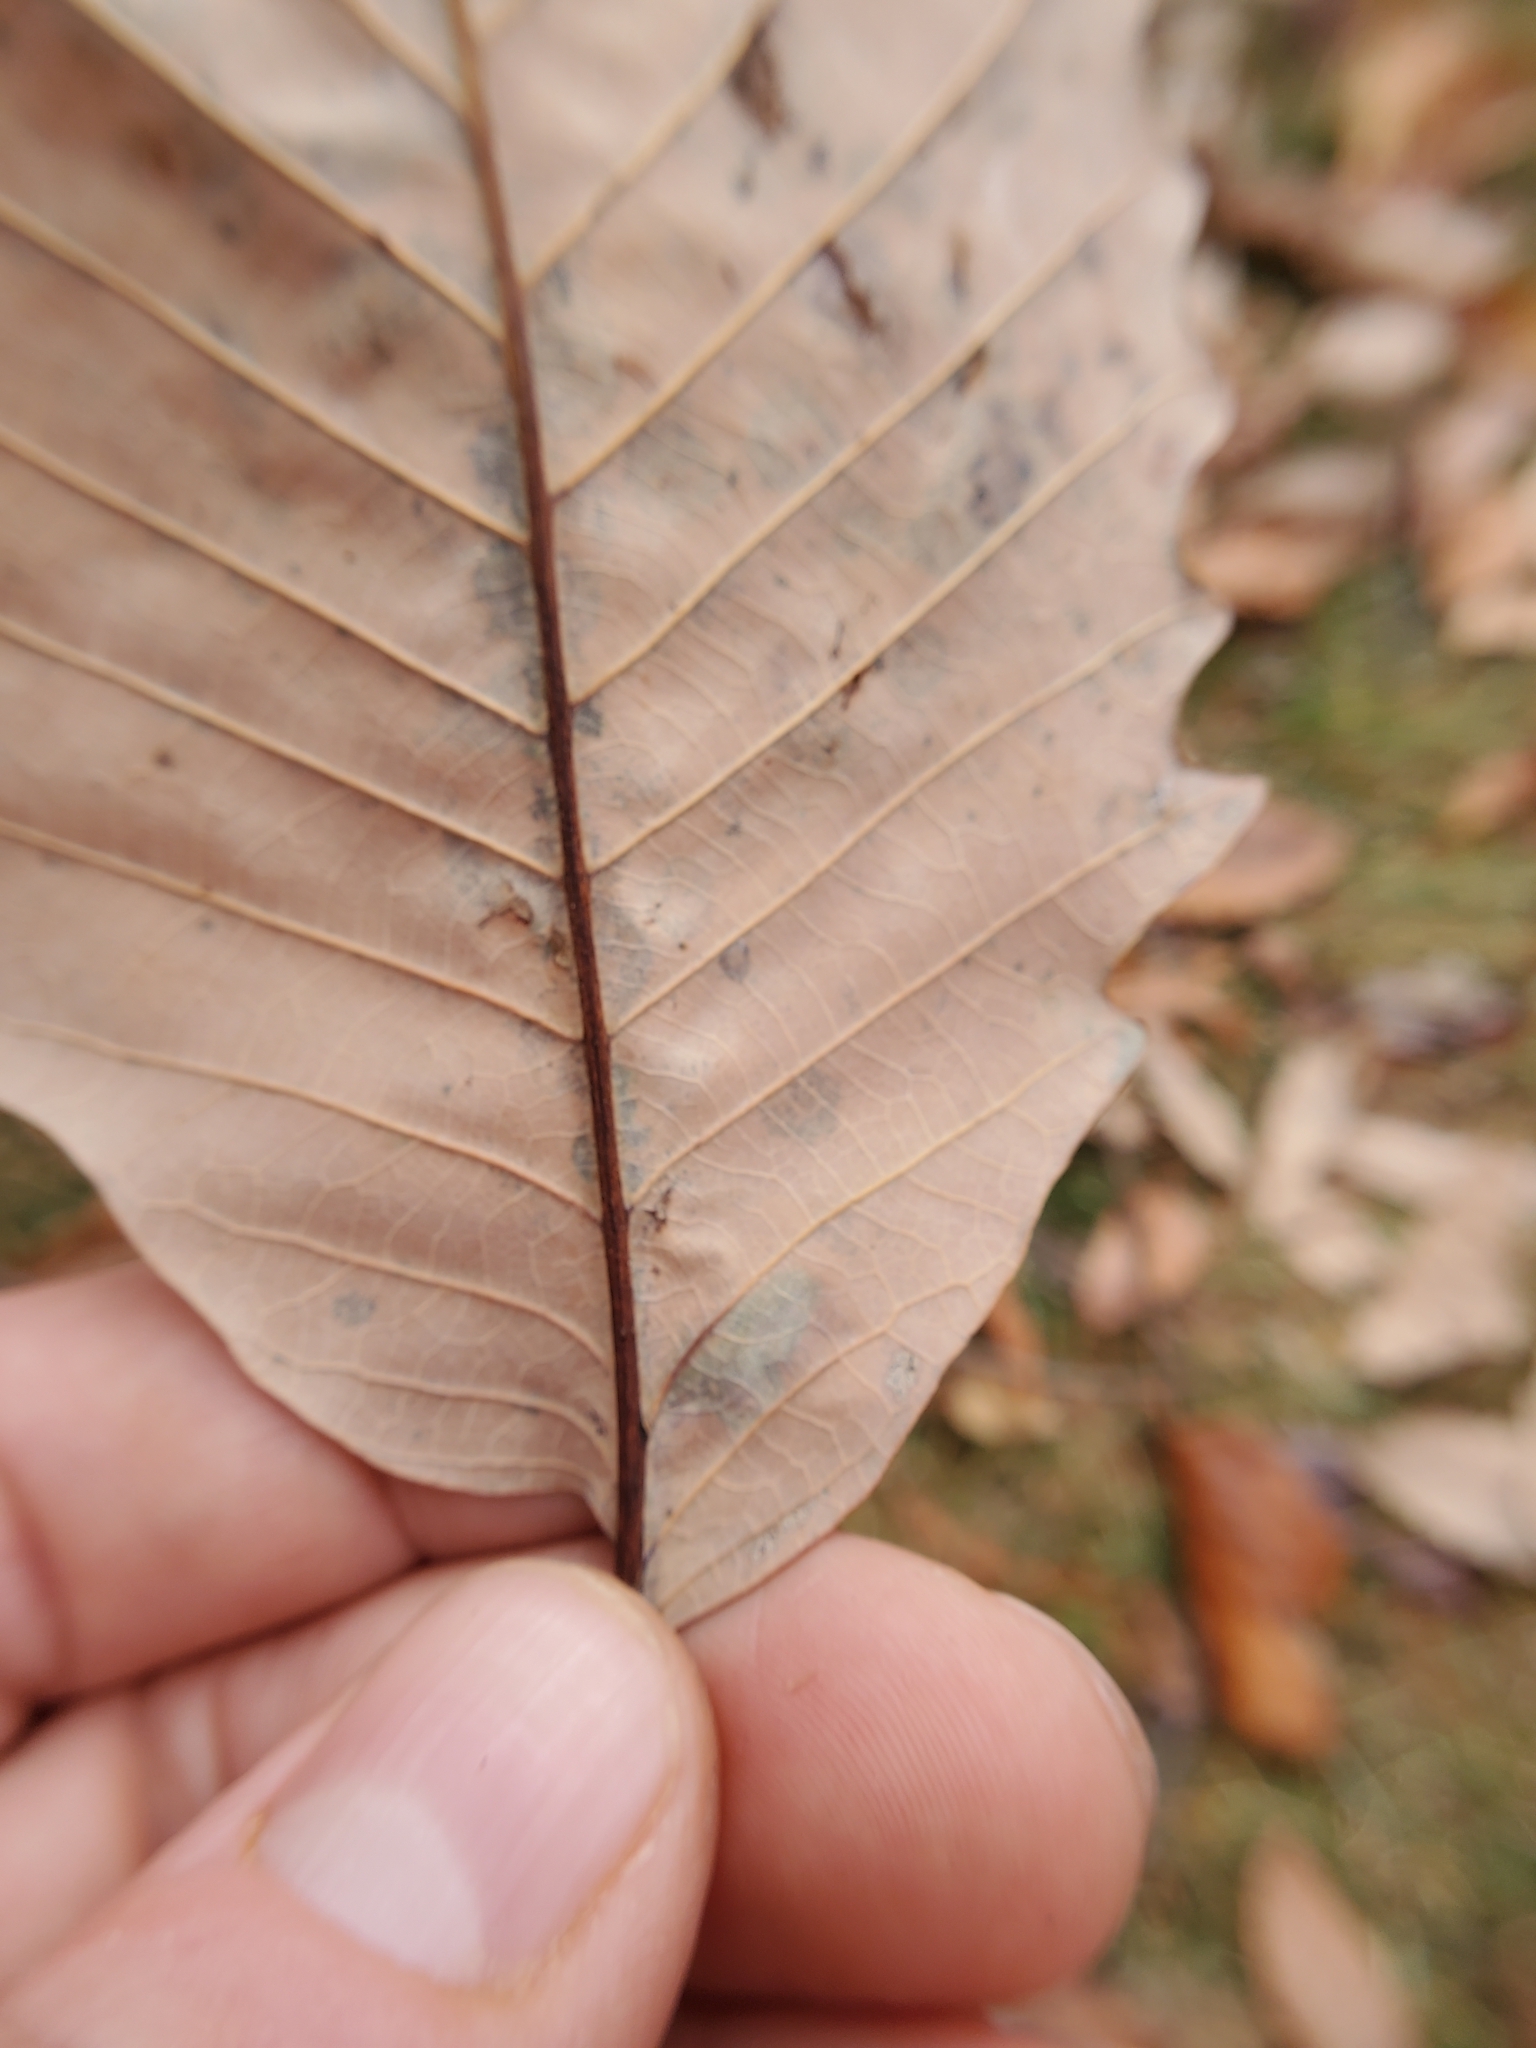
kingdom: Animalia
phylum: Arthropoda
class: Insecta
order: Lepidoptera
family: Tischeriidae
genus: Tischeria
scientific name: Tischeria quercitella
